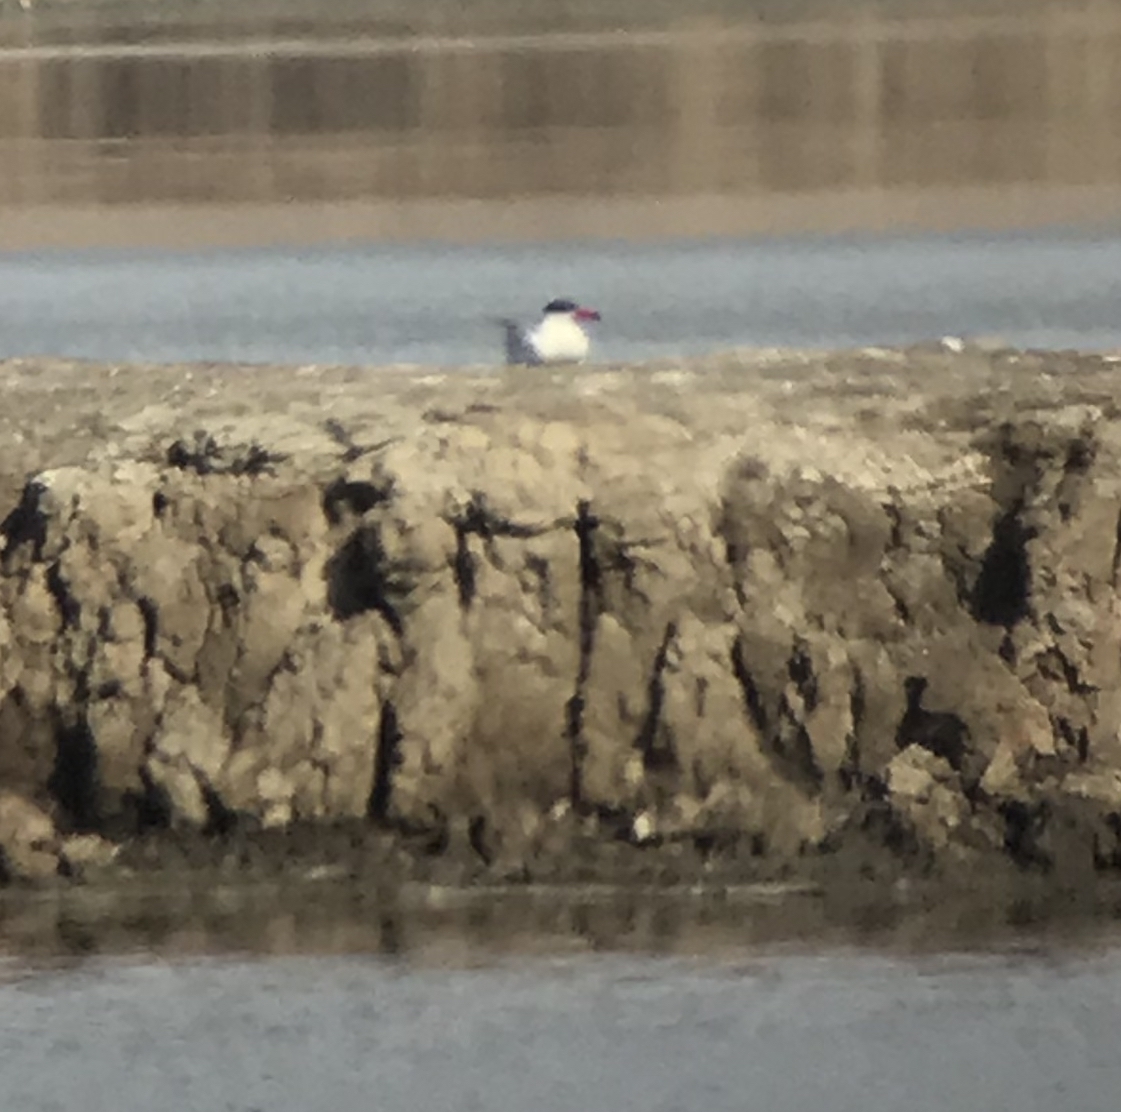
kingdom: Animalia
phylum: Chordata
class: Aves
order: Charadriiformes
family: Laridae
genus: Hydroprogne
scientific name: Hydroprogne caspia
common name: Caspian tern
